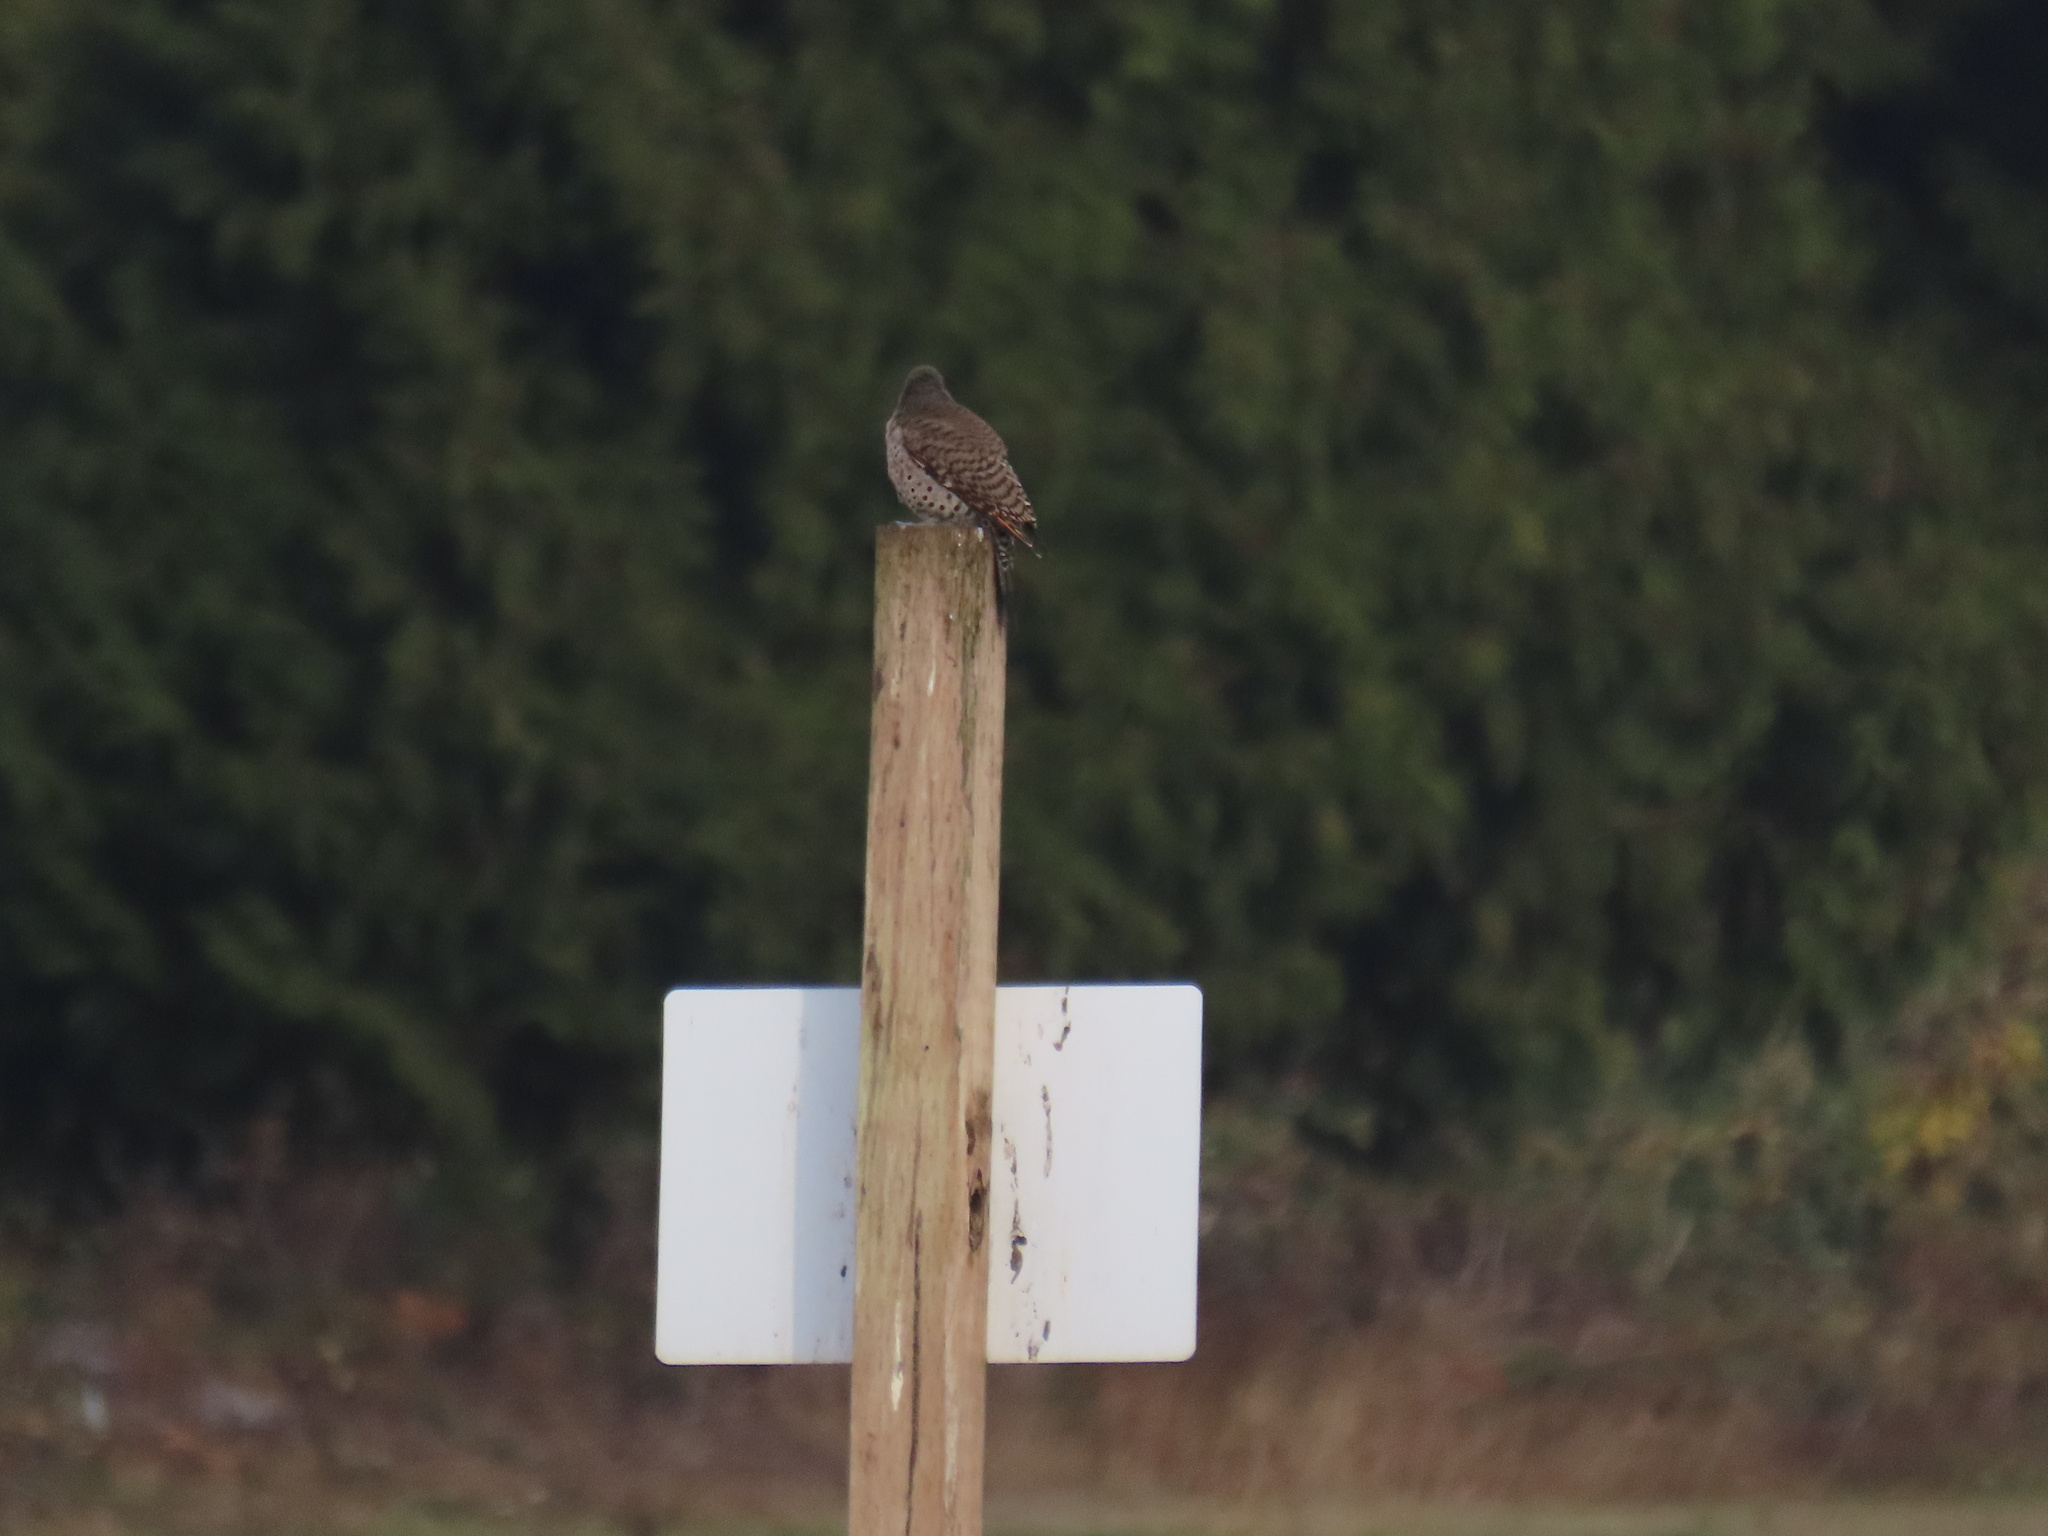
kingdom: Animalia
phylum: Chordata
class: Aves
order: Piciformes
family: Picidae
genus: Colaptes
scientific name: Colaptes auratus
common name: Northern flicker
